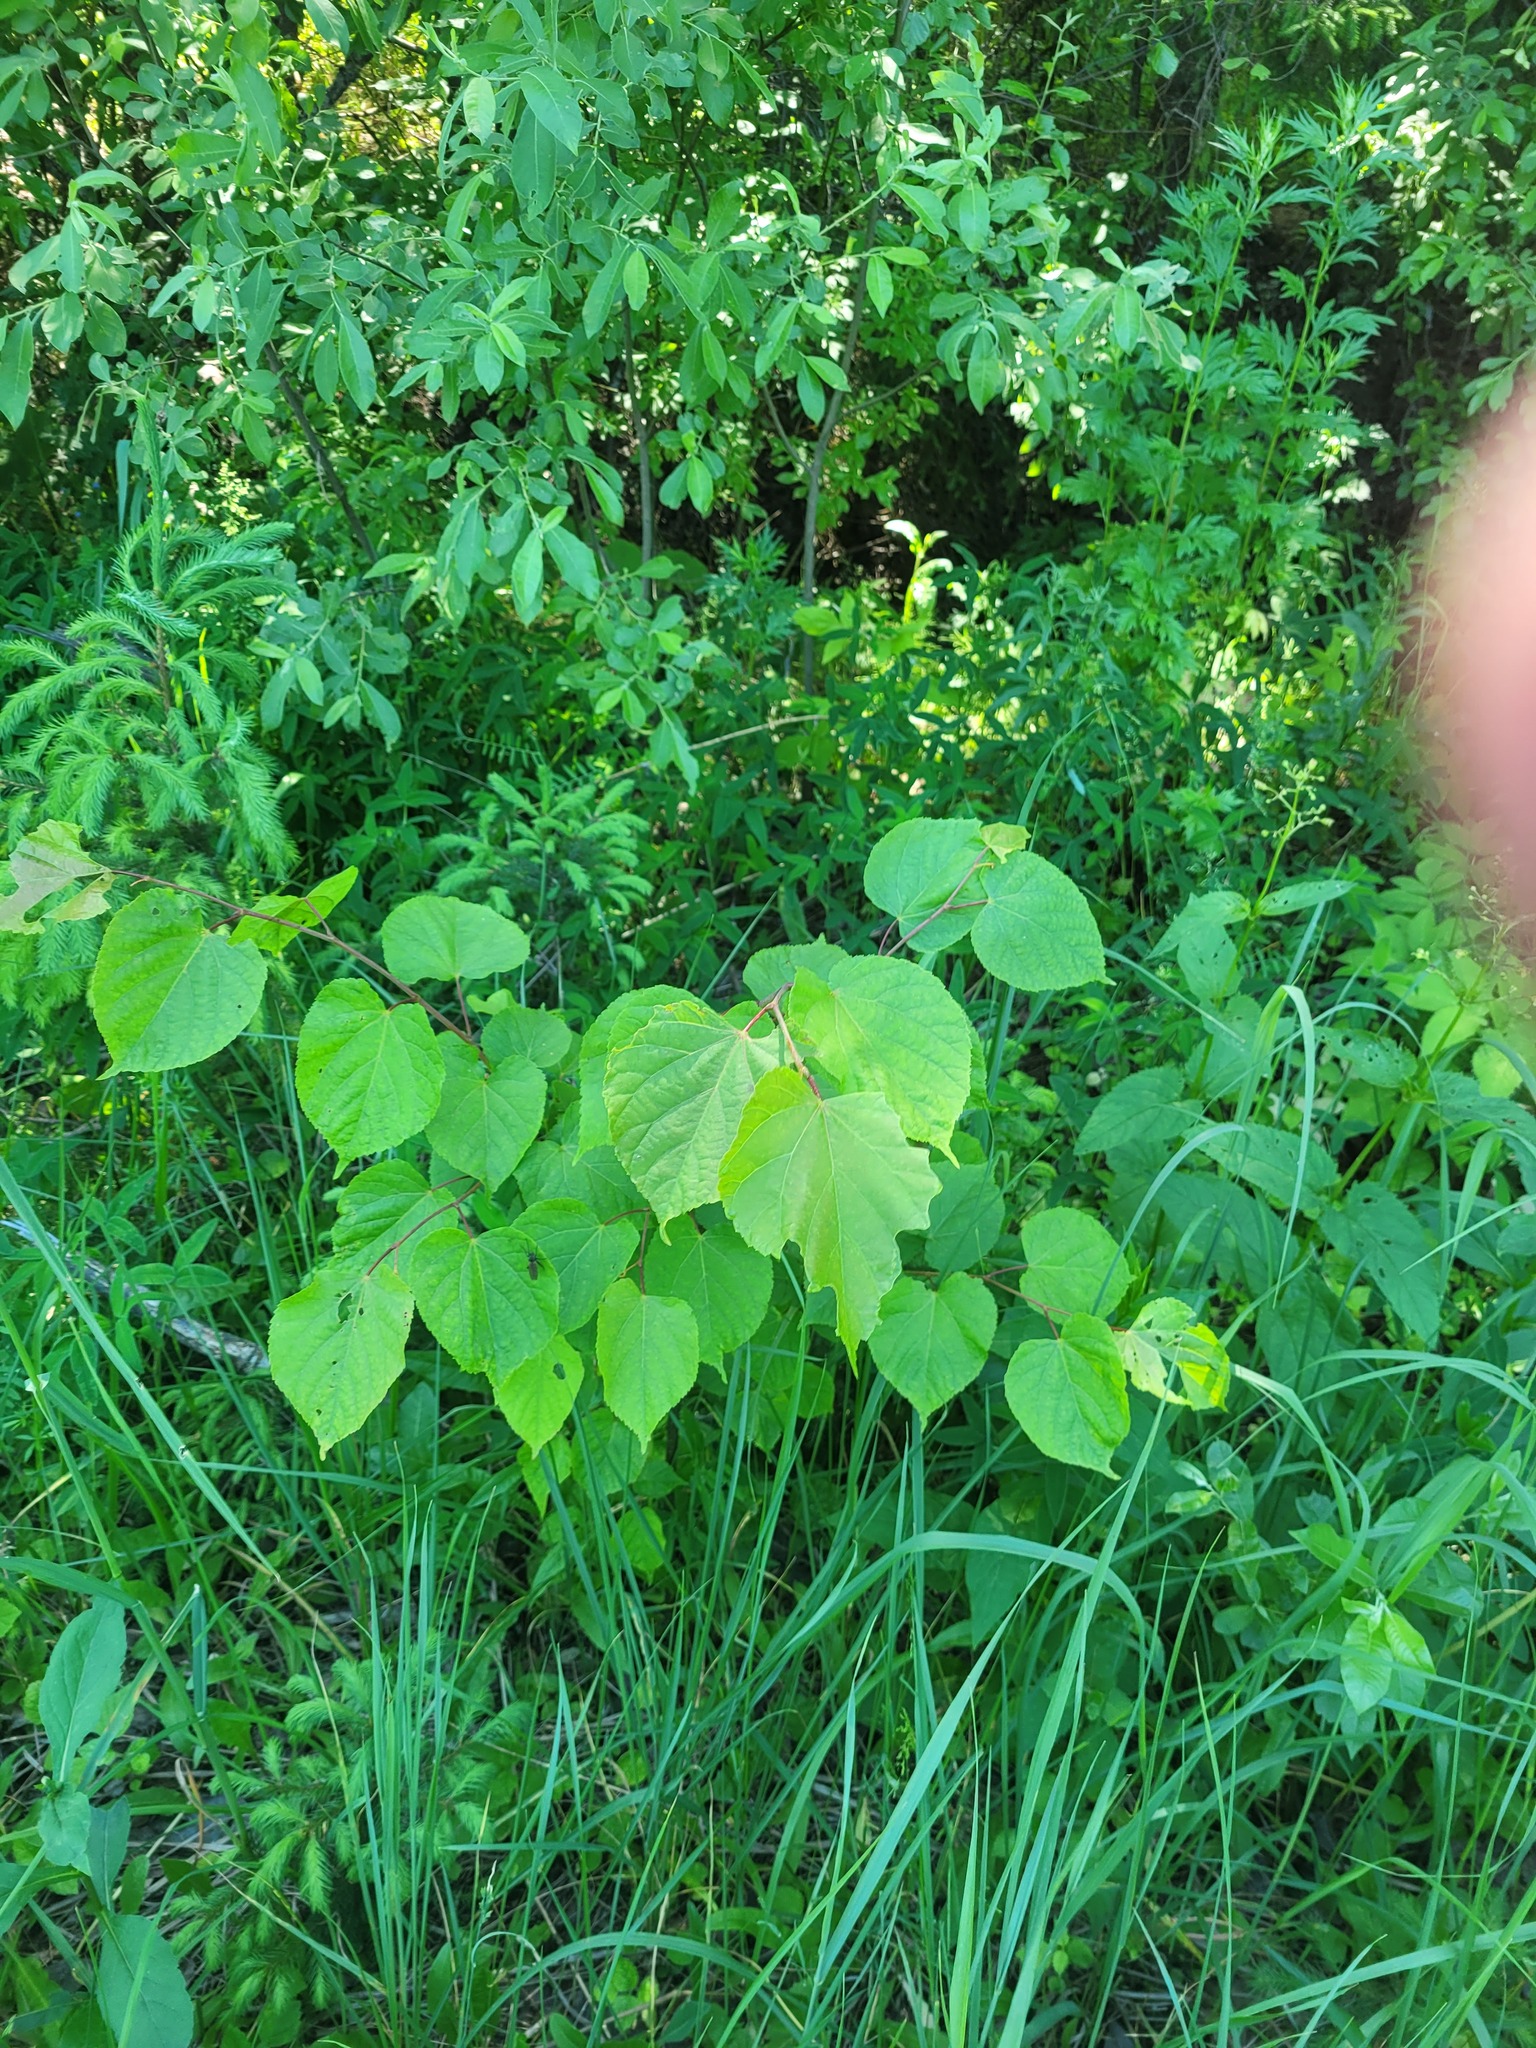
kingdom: Plantae
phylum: Tracheophyta
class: Magnoliopsida
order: Malvales
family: Malvaceae
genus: Tilia
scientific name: Tilia cordata
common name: Small-leaved lime
